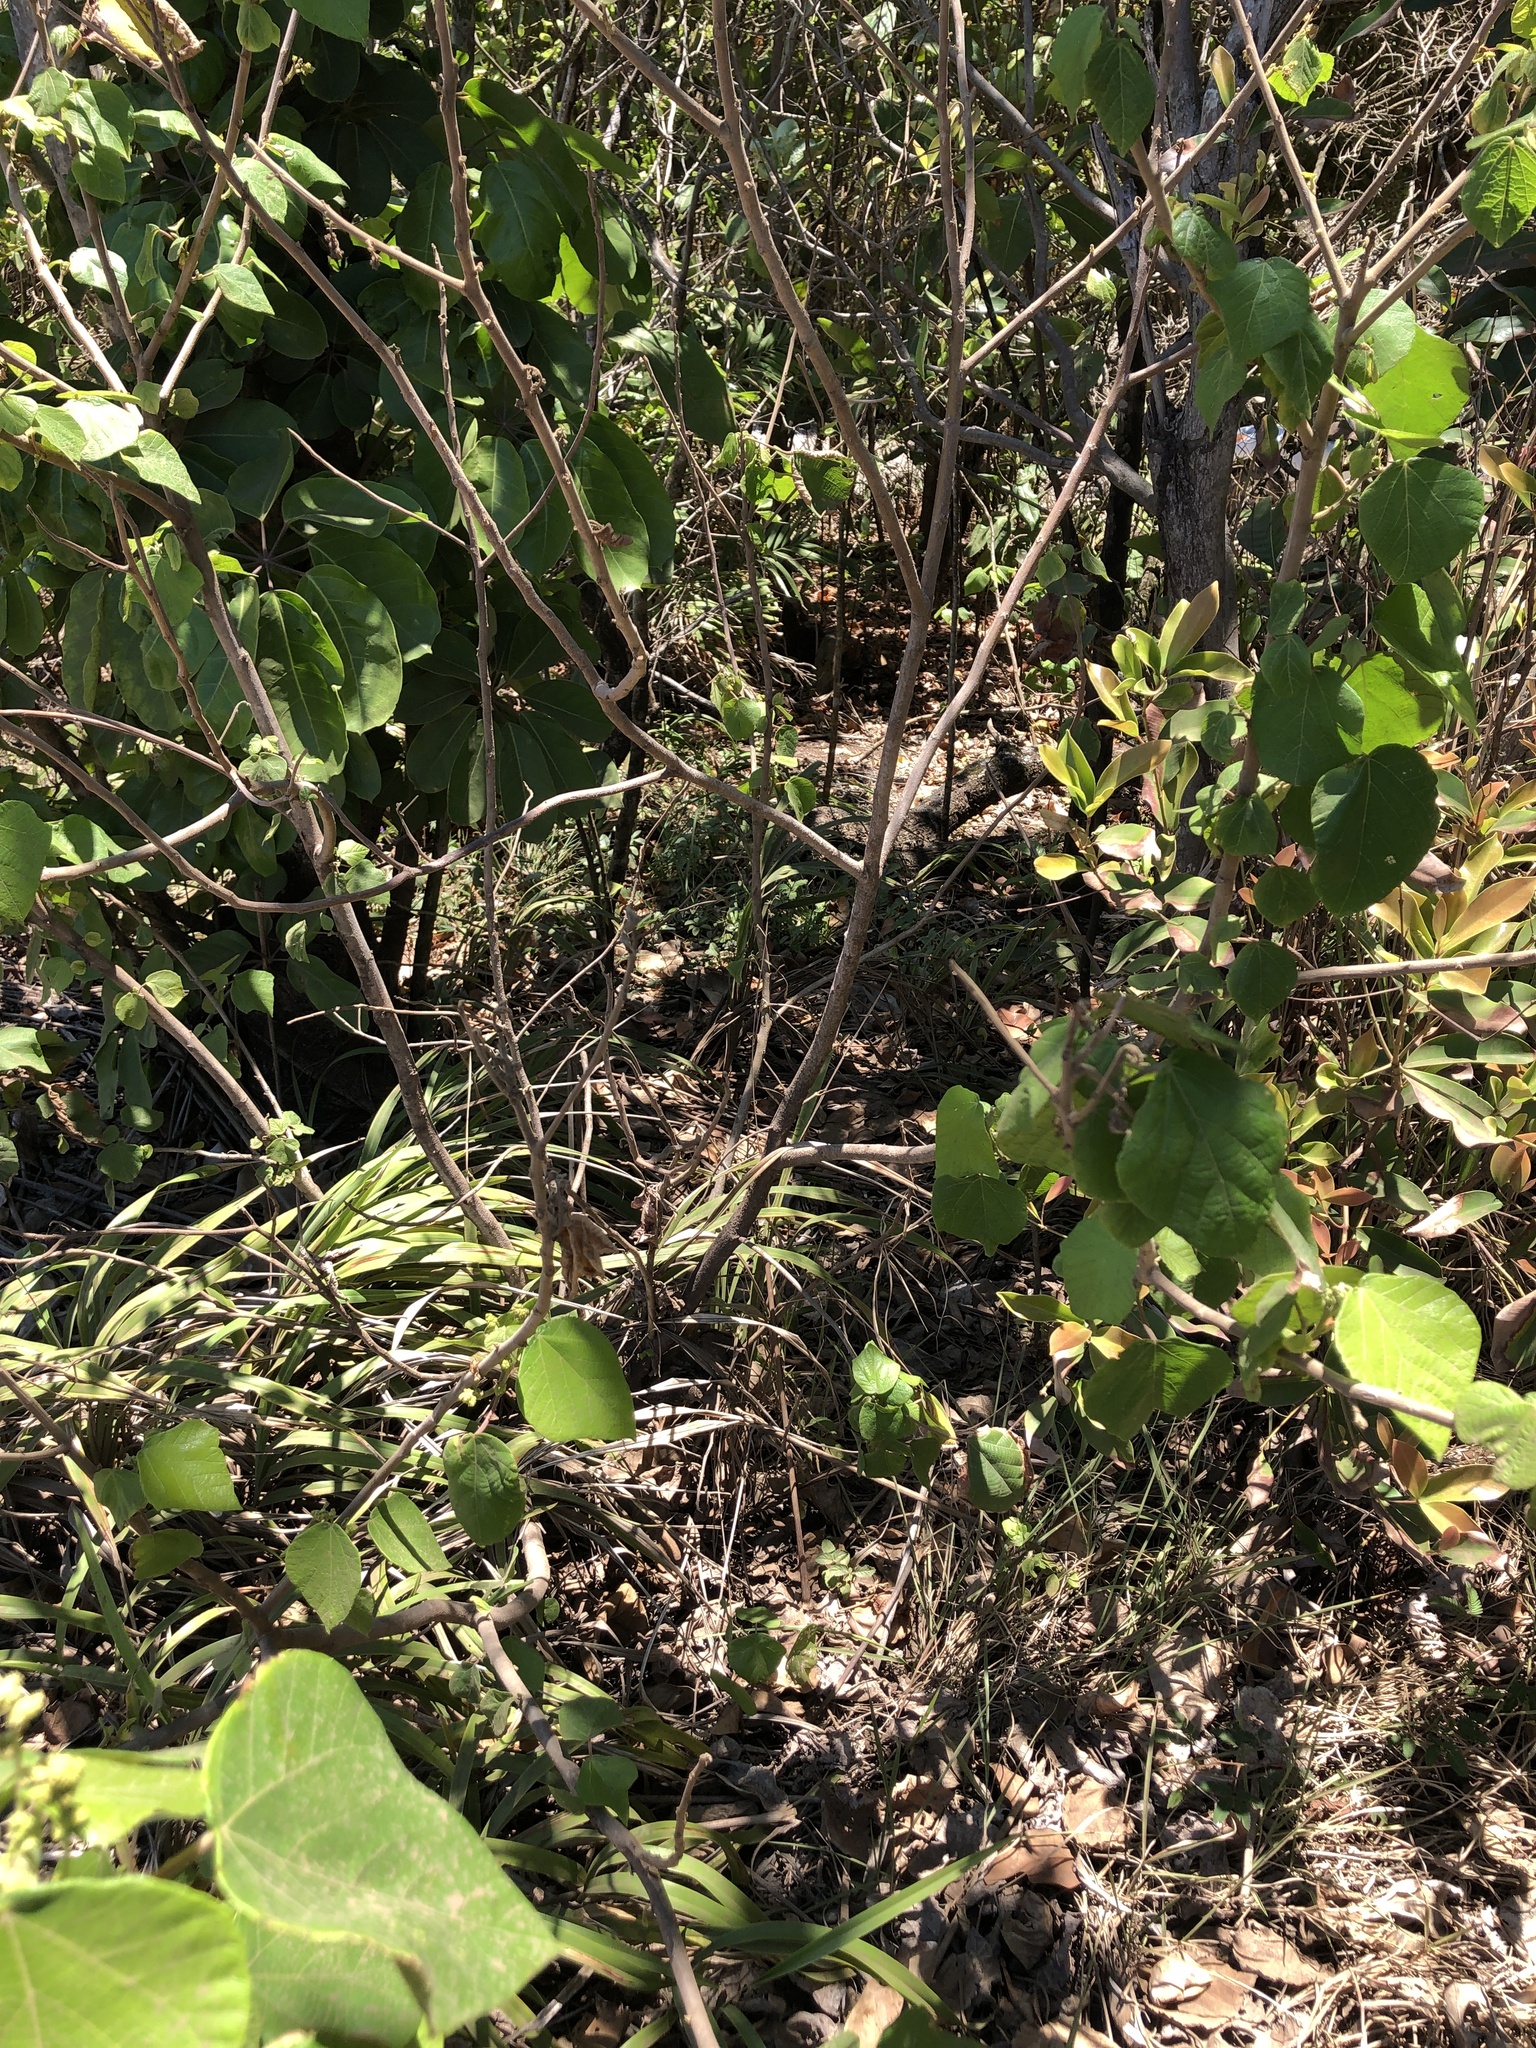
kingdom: Plantae
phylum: Tracheophyta
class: Magnoliopsida
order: Malpighiales
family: Euphorbiaceae
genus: Macaranga
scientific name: Macaranga involucrata
